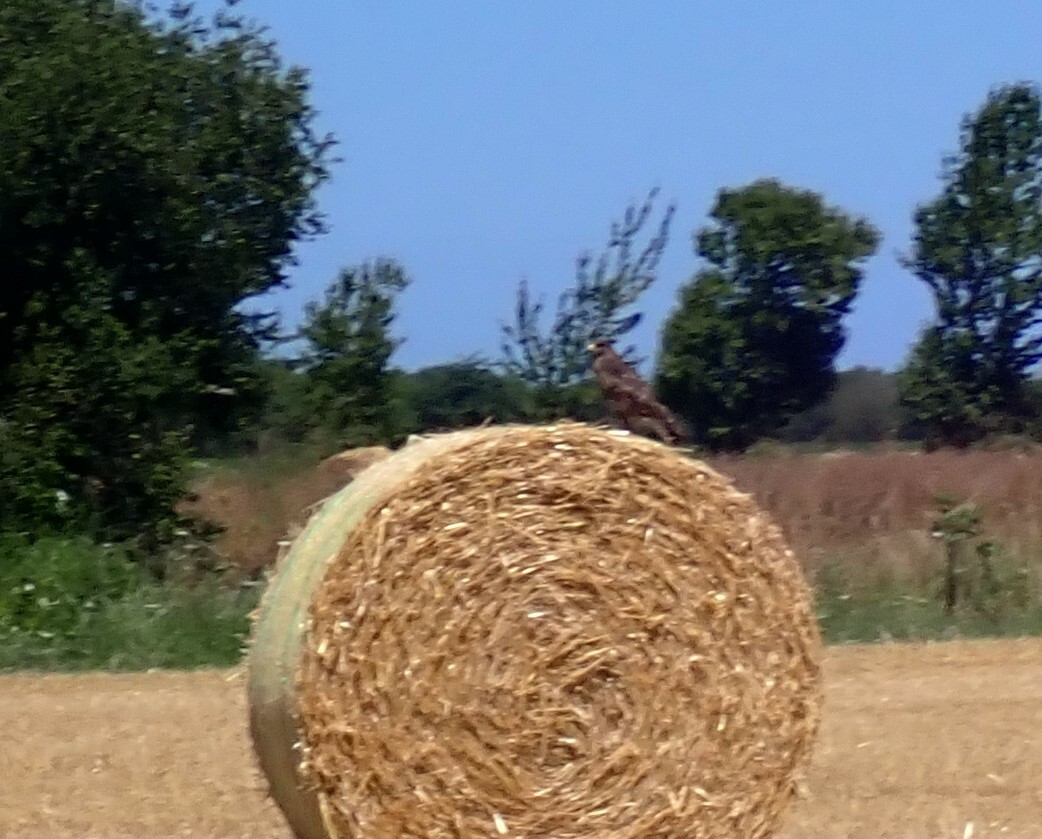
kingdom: Animalia
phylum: Chordata
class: Aves
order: Accipitriformes
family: Accipitridae
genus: Buteo
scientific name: Buteo buteo
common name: Common buzzard
